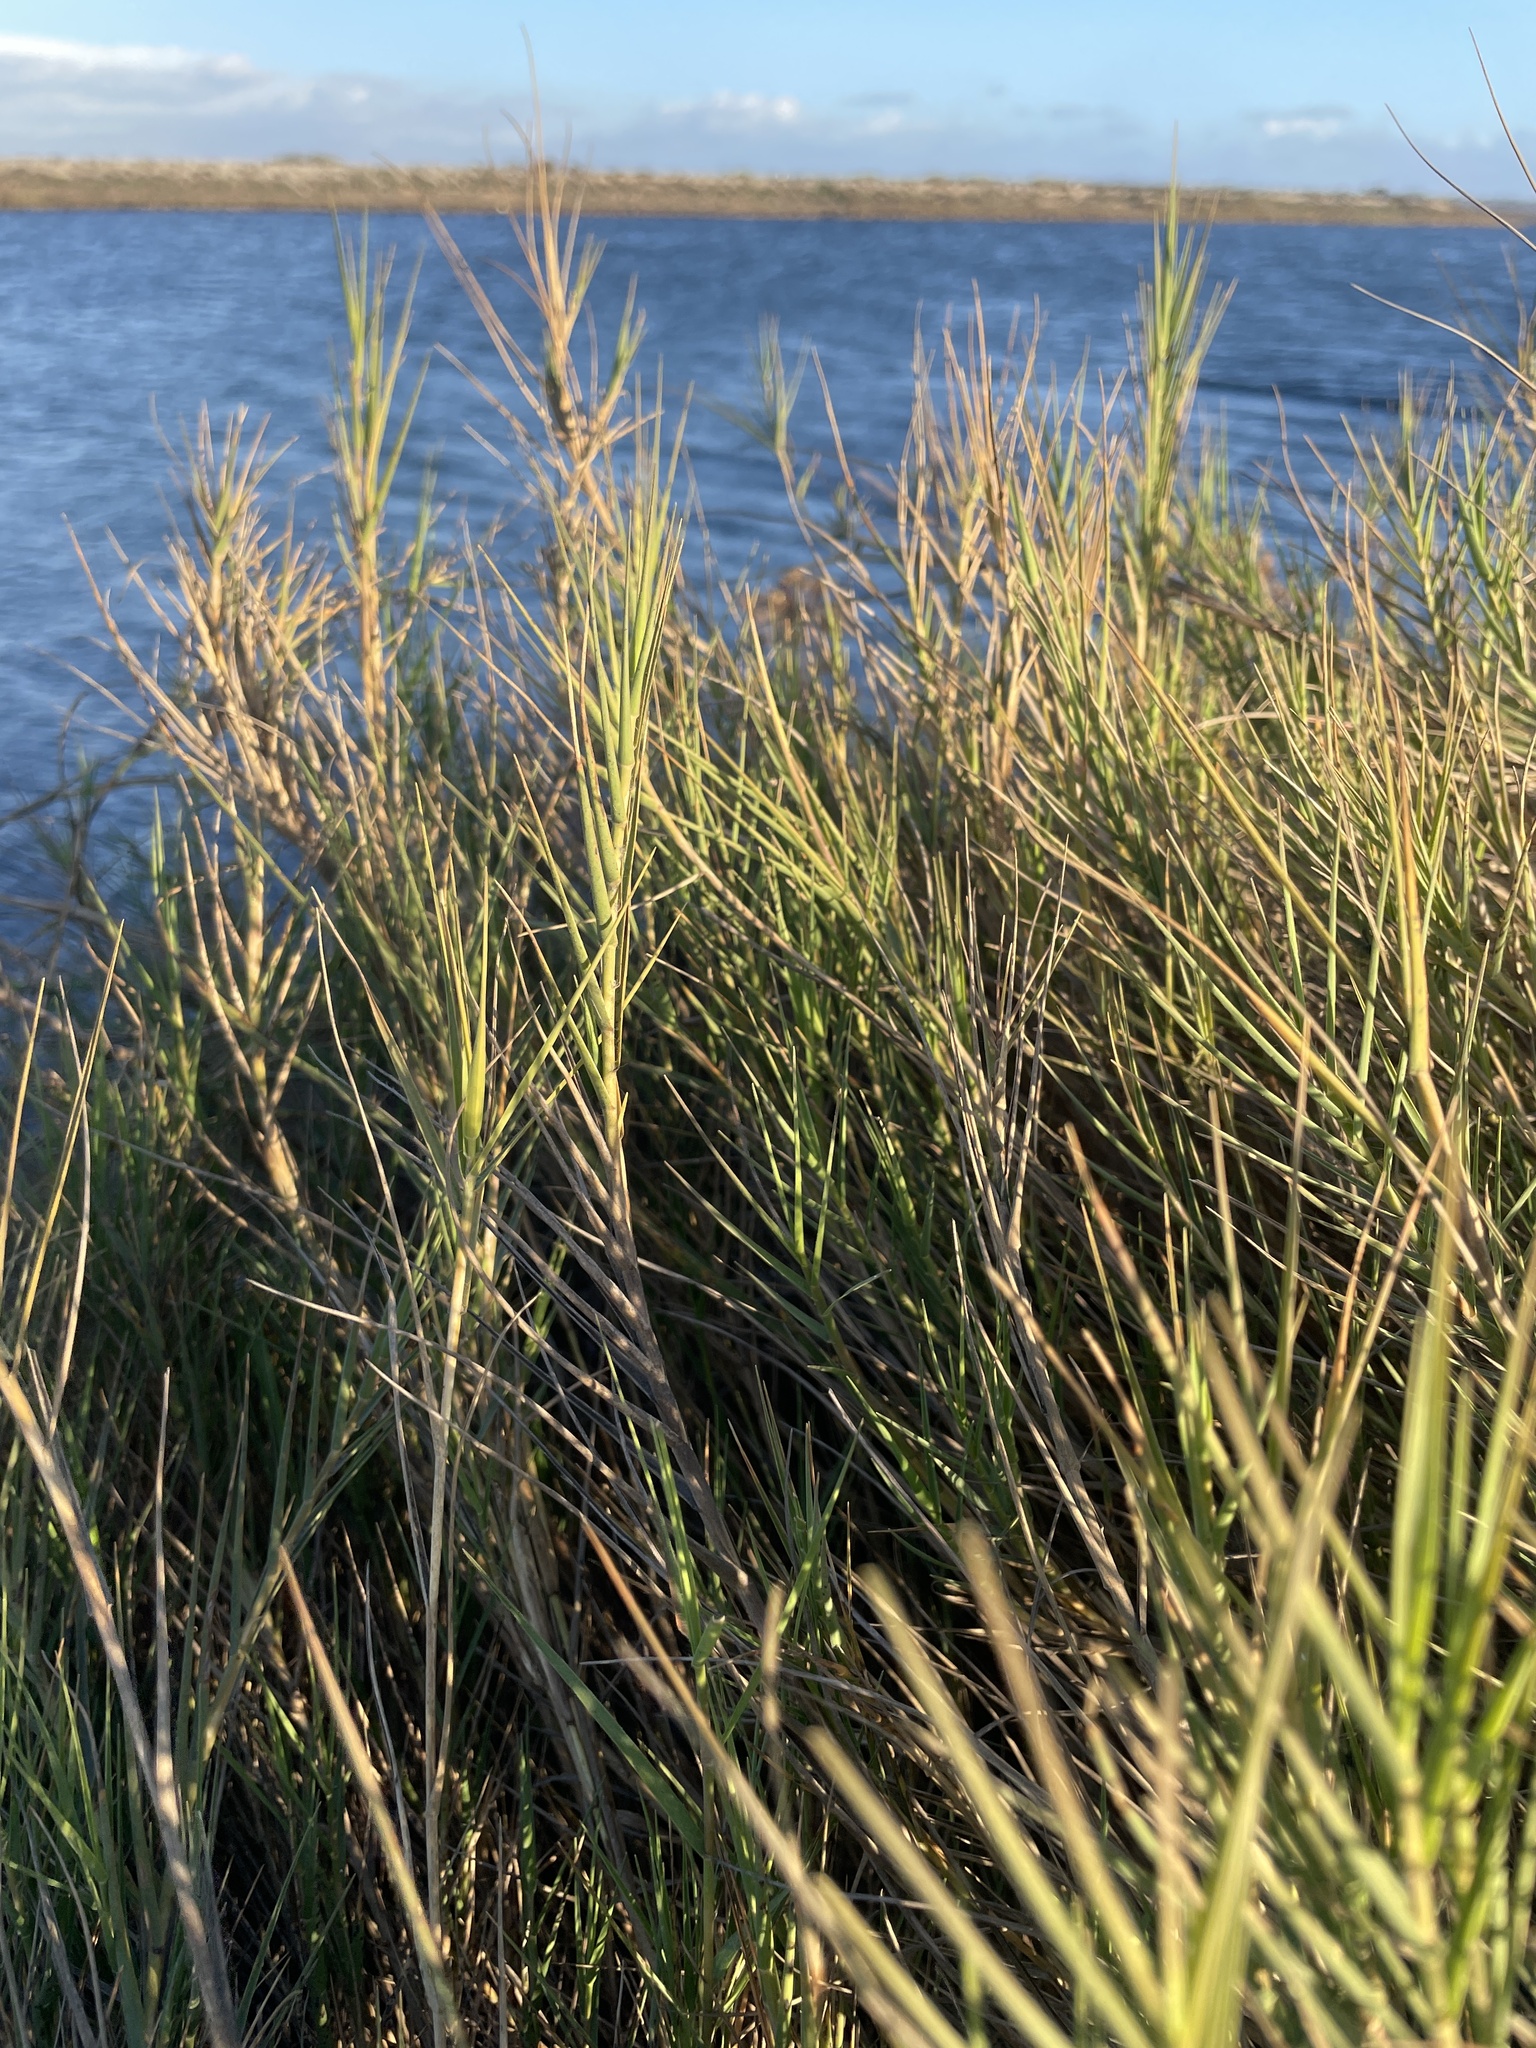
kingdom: Plantae
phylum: Tracheophyta
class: Liliopsida
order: Poales
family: Poaceae
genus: Distichlis
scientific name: Distichlis spicata
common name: Saltgrass
